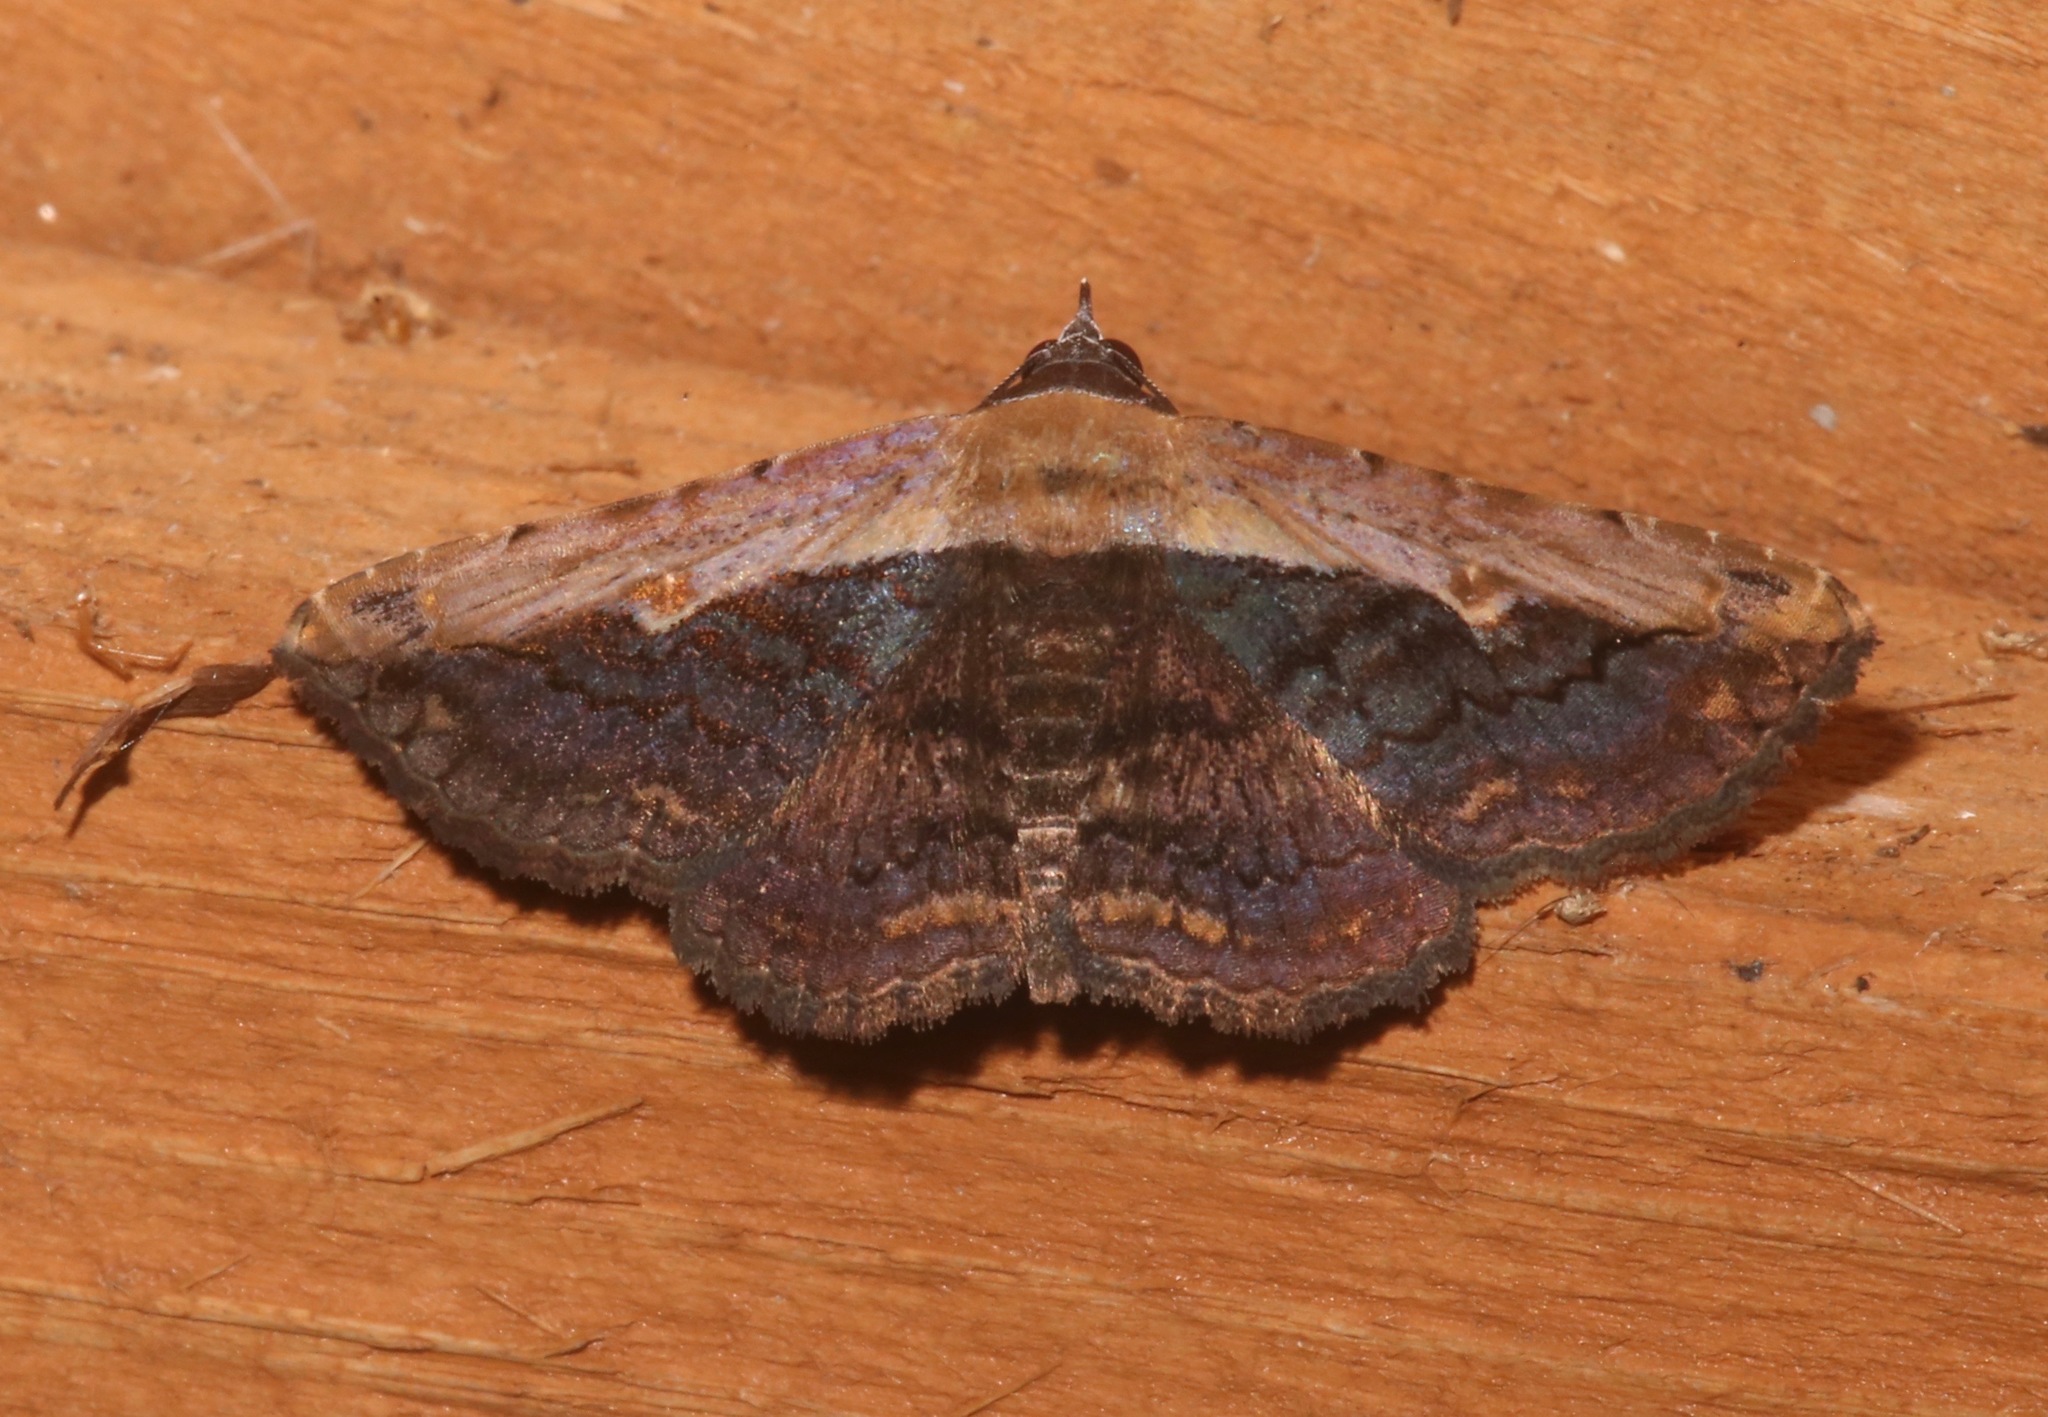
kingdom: Animalia
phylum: Arthropoda
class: Insecta
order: Lepidoptera
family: Erebidae
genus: Selenisa
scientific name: Selenisa sueroides
